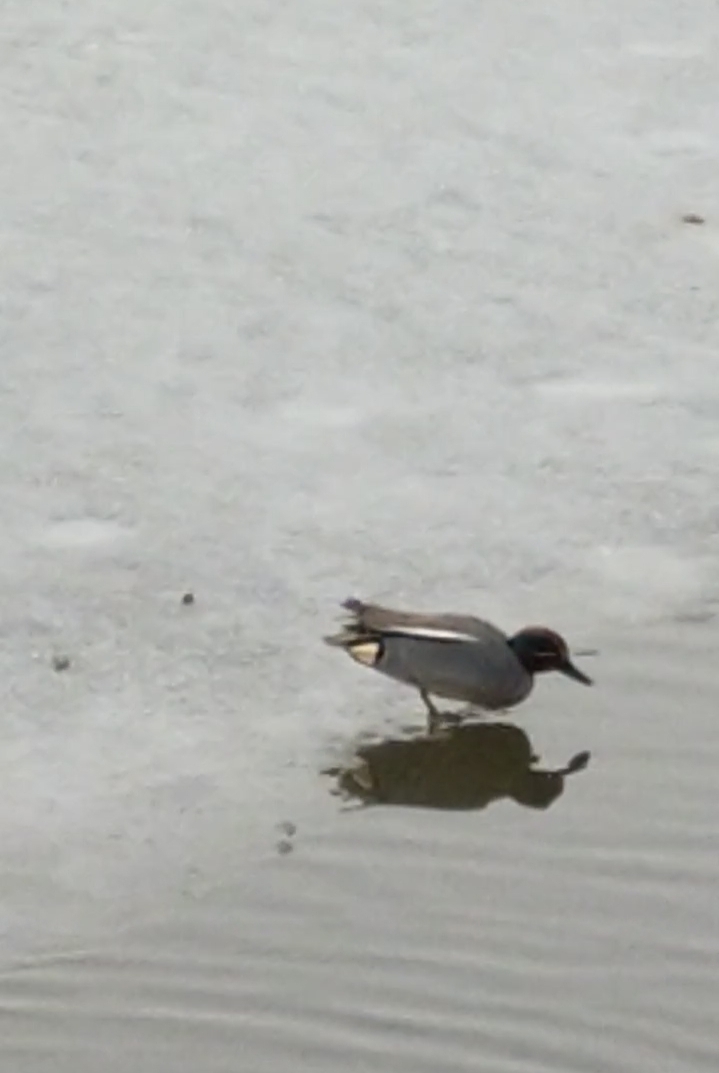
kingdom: Animalia
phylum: Chordata
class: Aves
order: Anseriformes
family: Anatidae
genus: Anas
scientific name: Anas crecca
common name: Eurasian teal
